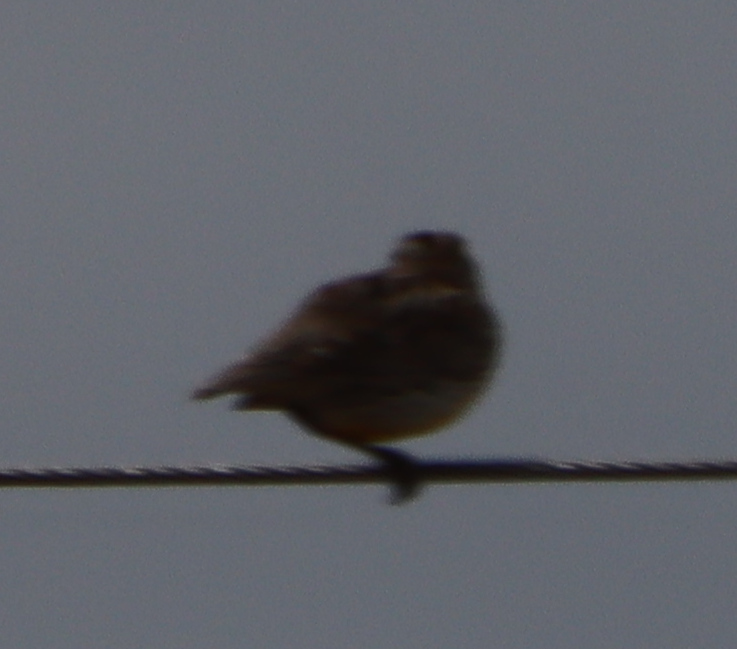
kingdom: Animalia
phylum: Chordata
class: Aves
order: Passeriformes
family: Icteridae
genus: Sturnella
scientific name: Sturnella neglecta
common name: Western meadowlark
